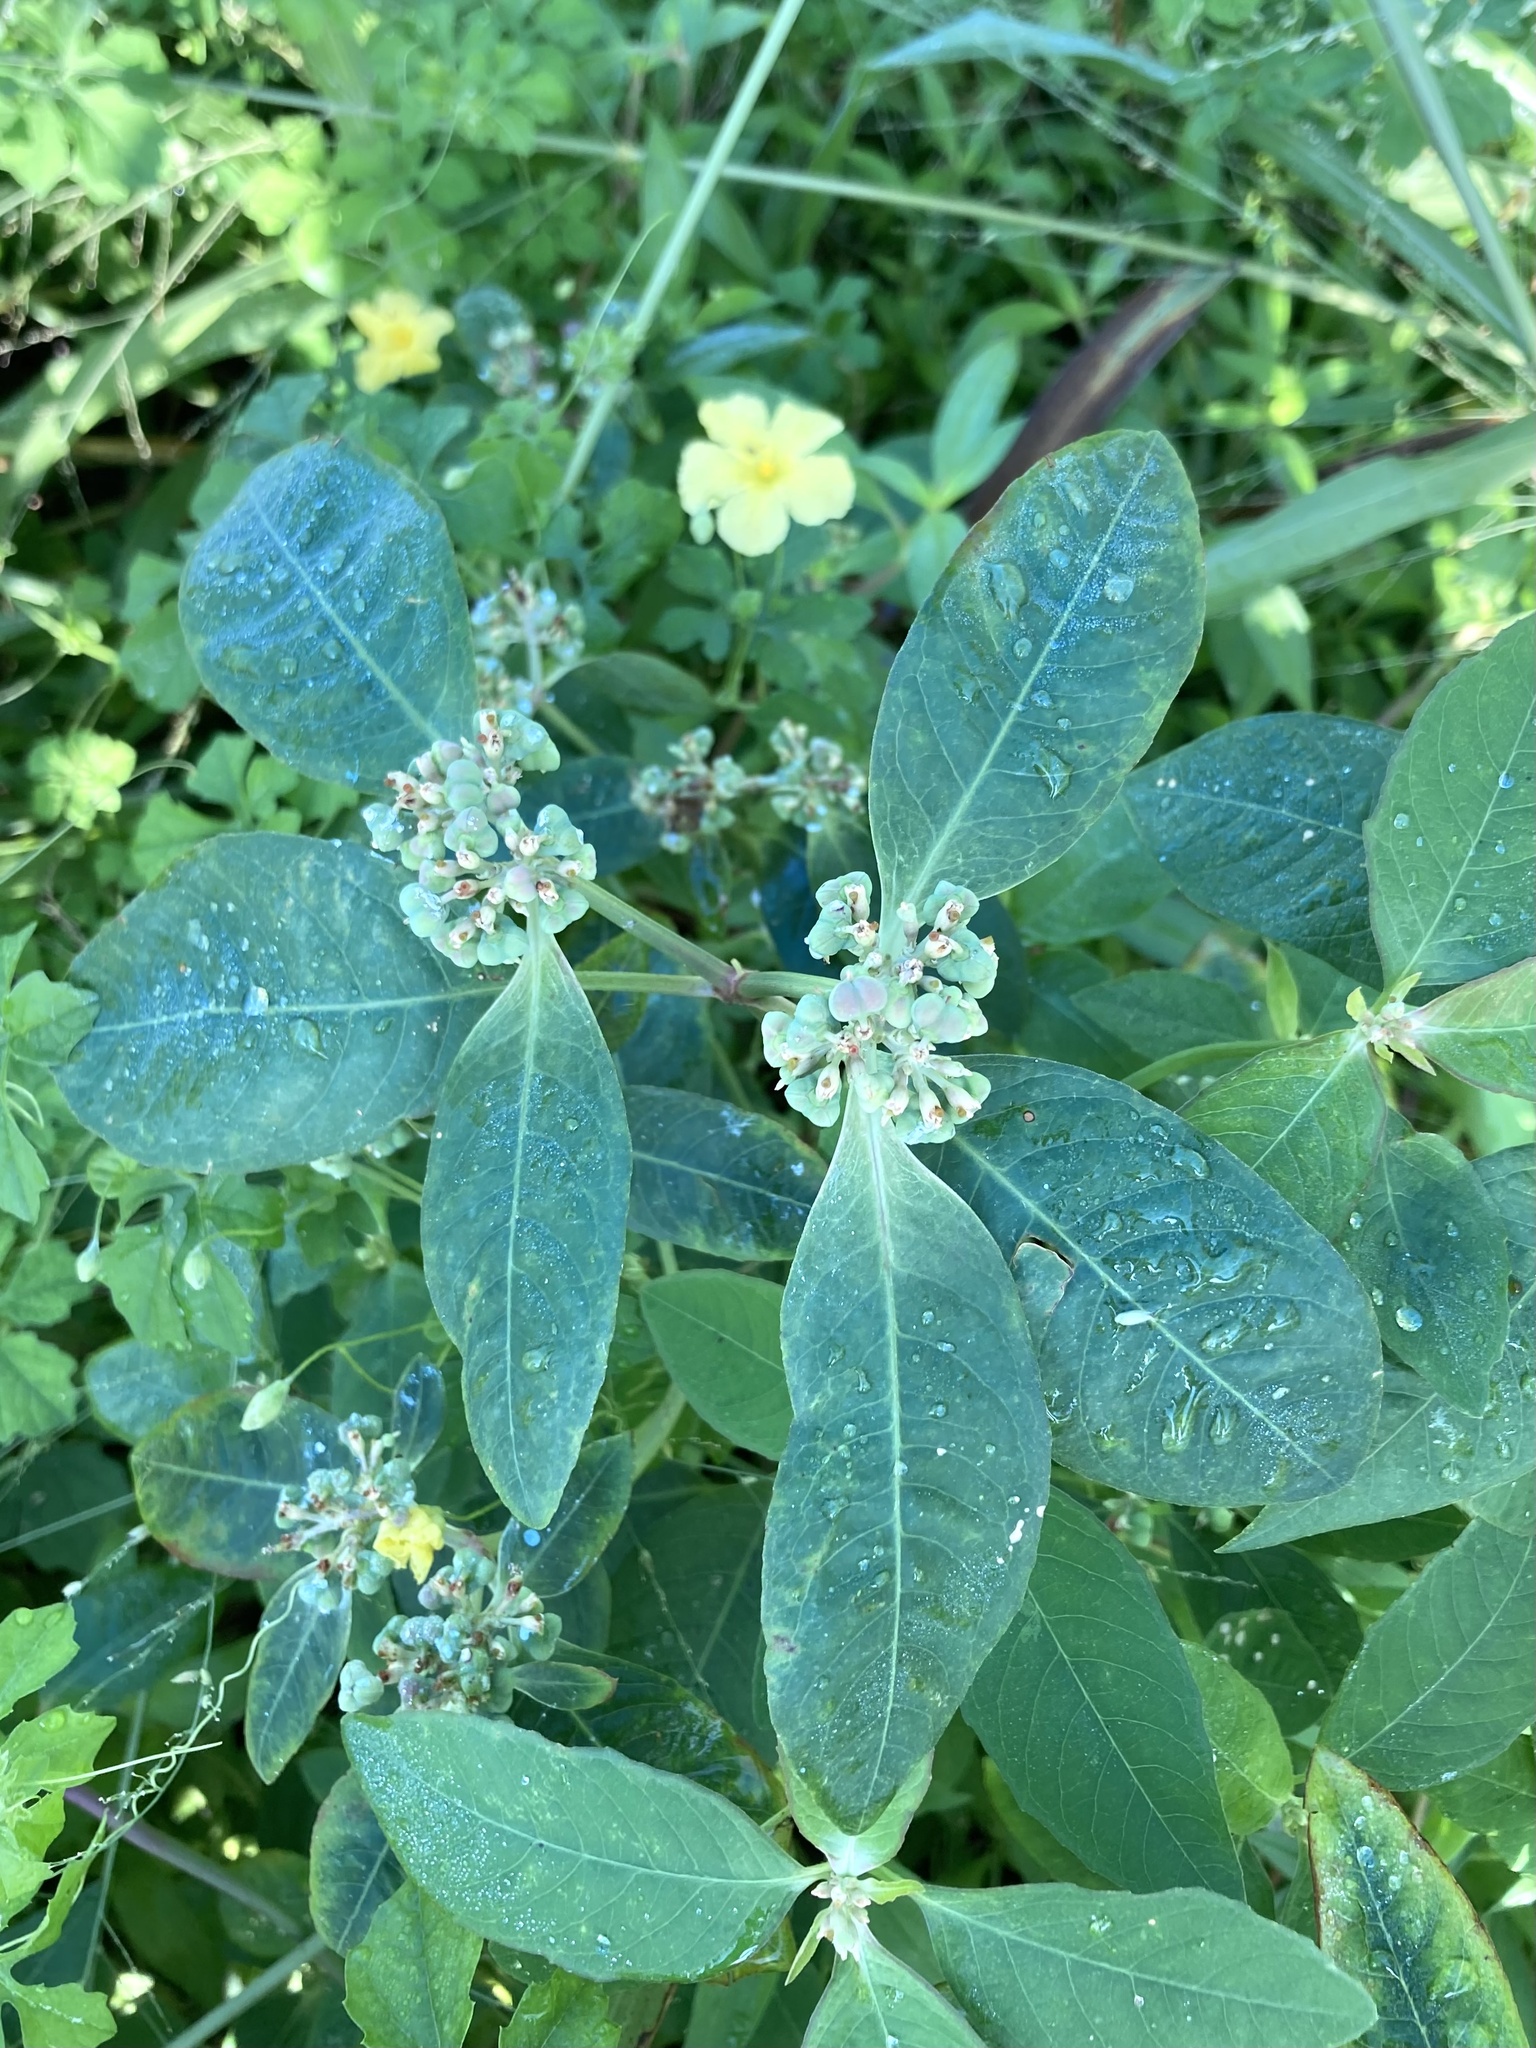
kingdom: Plantae
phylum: Tracheophyta
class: Magnoliopsida
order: Malpighiales
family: Euphorbiaceae
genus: Euphorbia
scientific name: Euphorbia heterophylla
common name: Mexican fireplant
